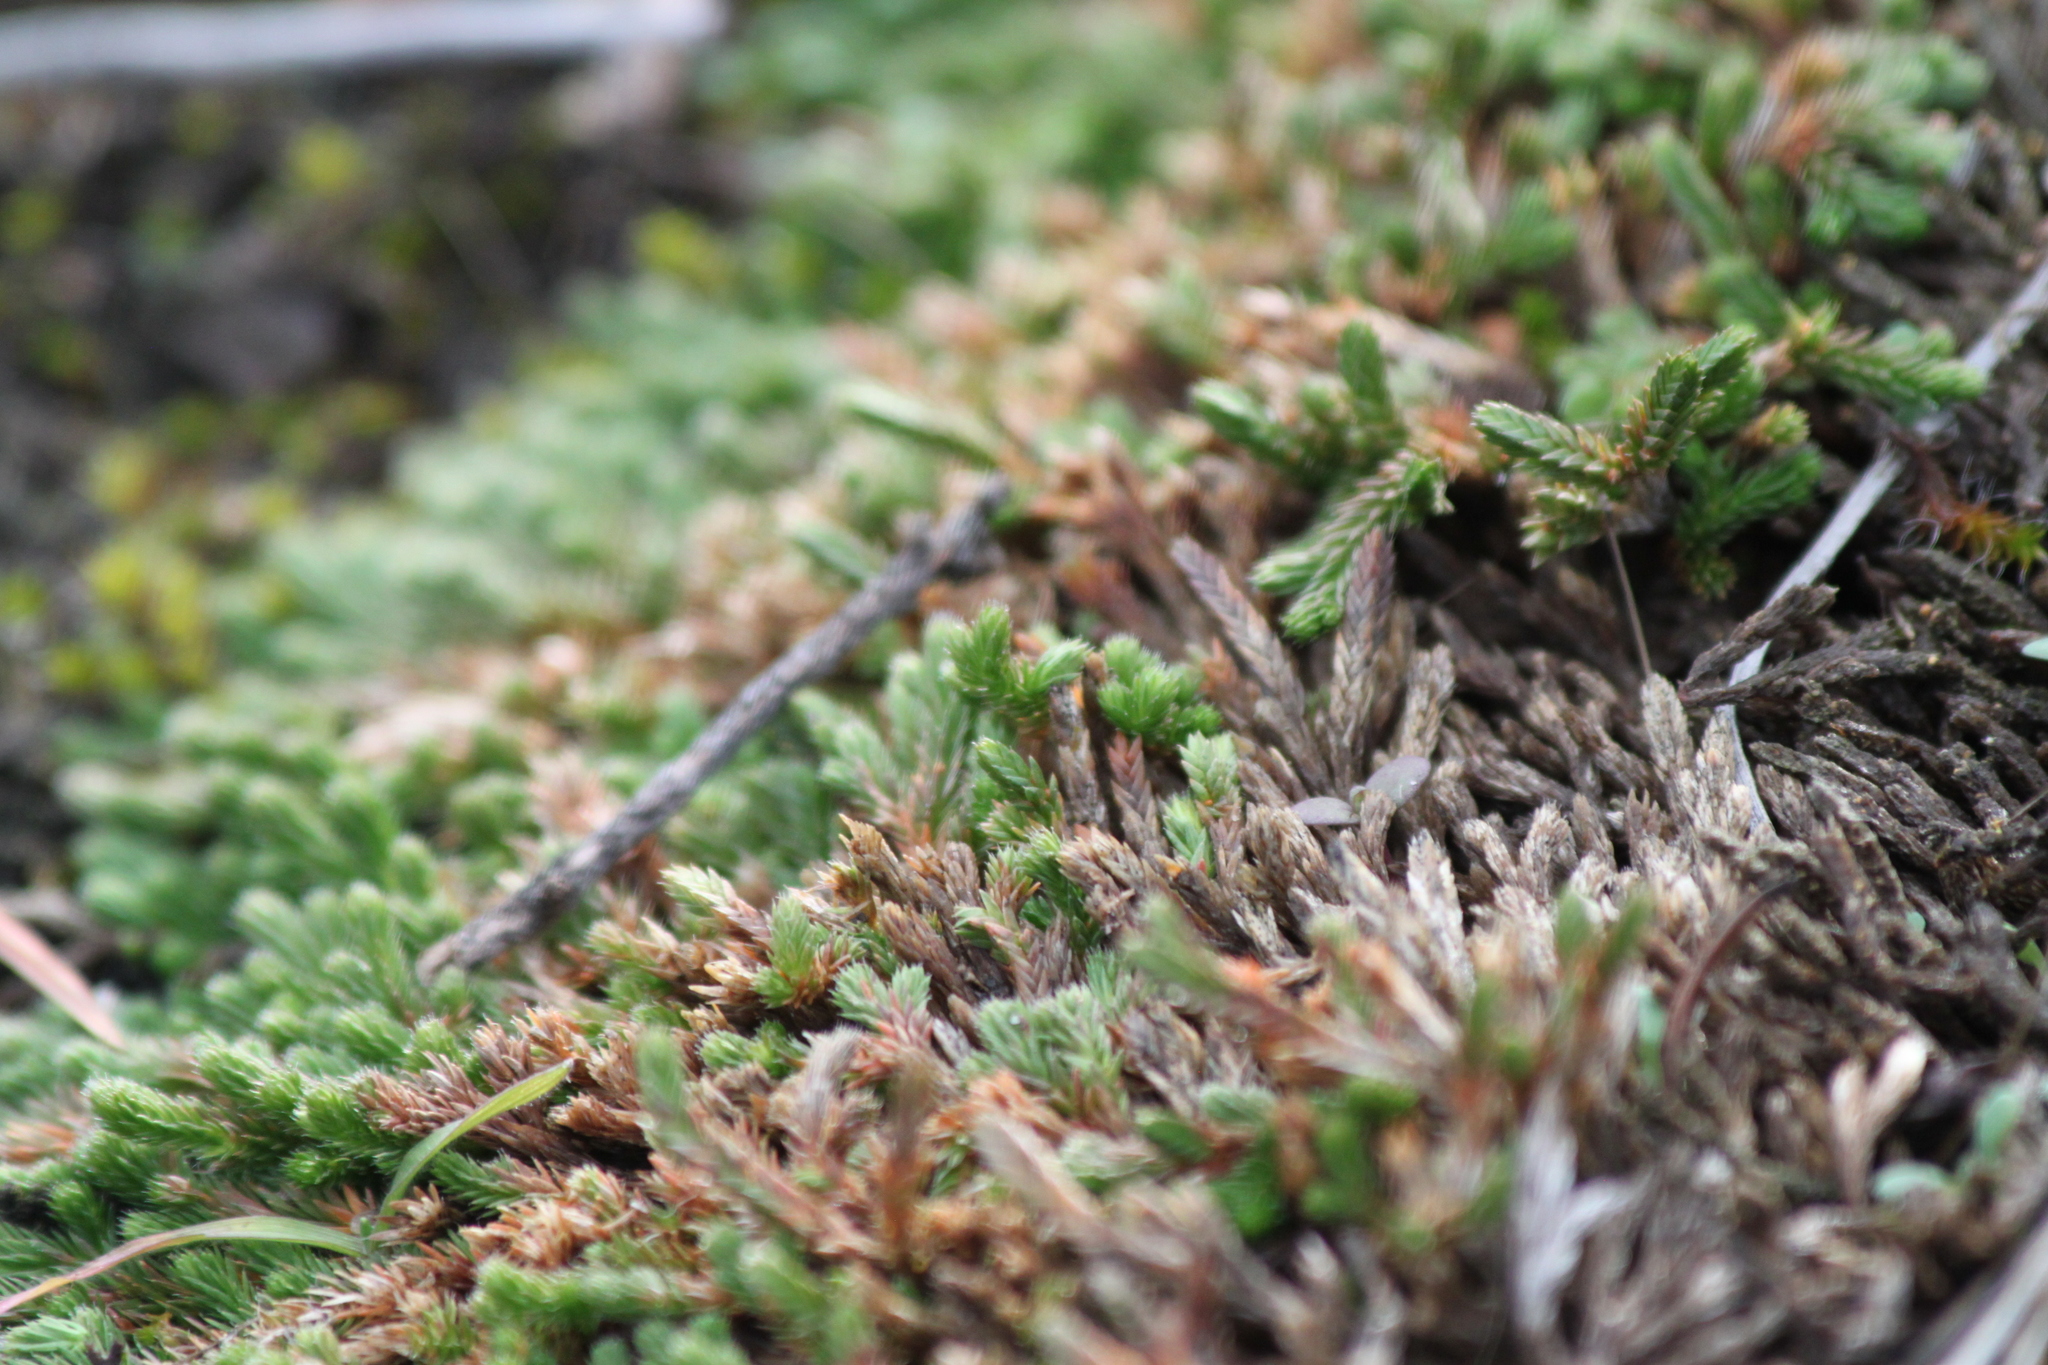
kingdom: Plantae
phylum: Tracheophyta
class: Lycopodiopsida
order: Selaginellales
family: Selaginellaceae
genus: Selaginella
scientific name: Selaginella wallacei
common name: Wallace's selaginella
